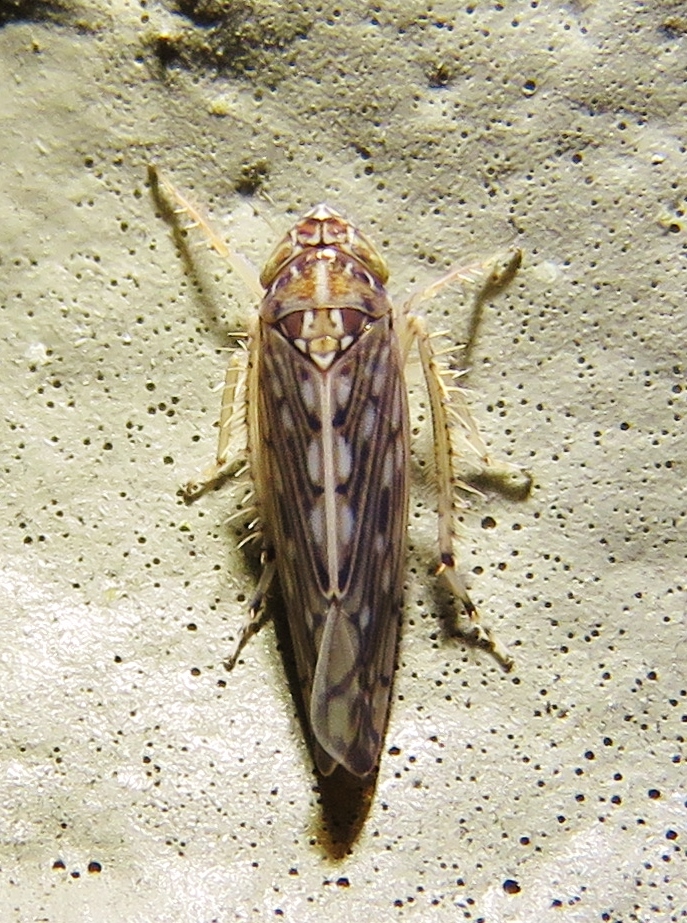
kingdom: Animalia
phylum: Arthropoda
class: Insecta
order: Hemiptera
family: Cicadellidae
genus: Osbornellus
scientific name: Osbornellus clarus
